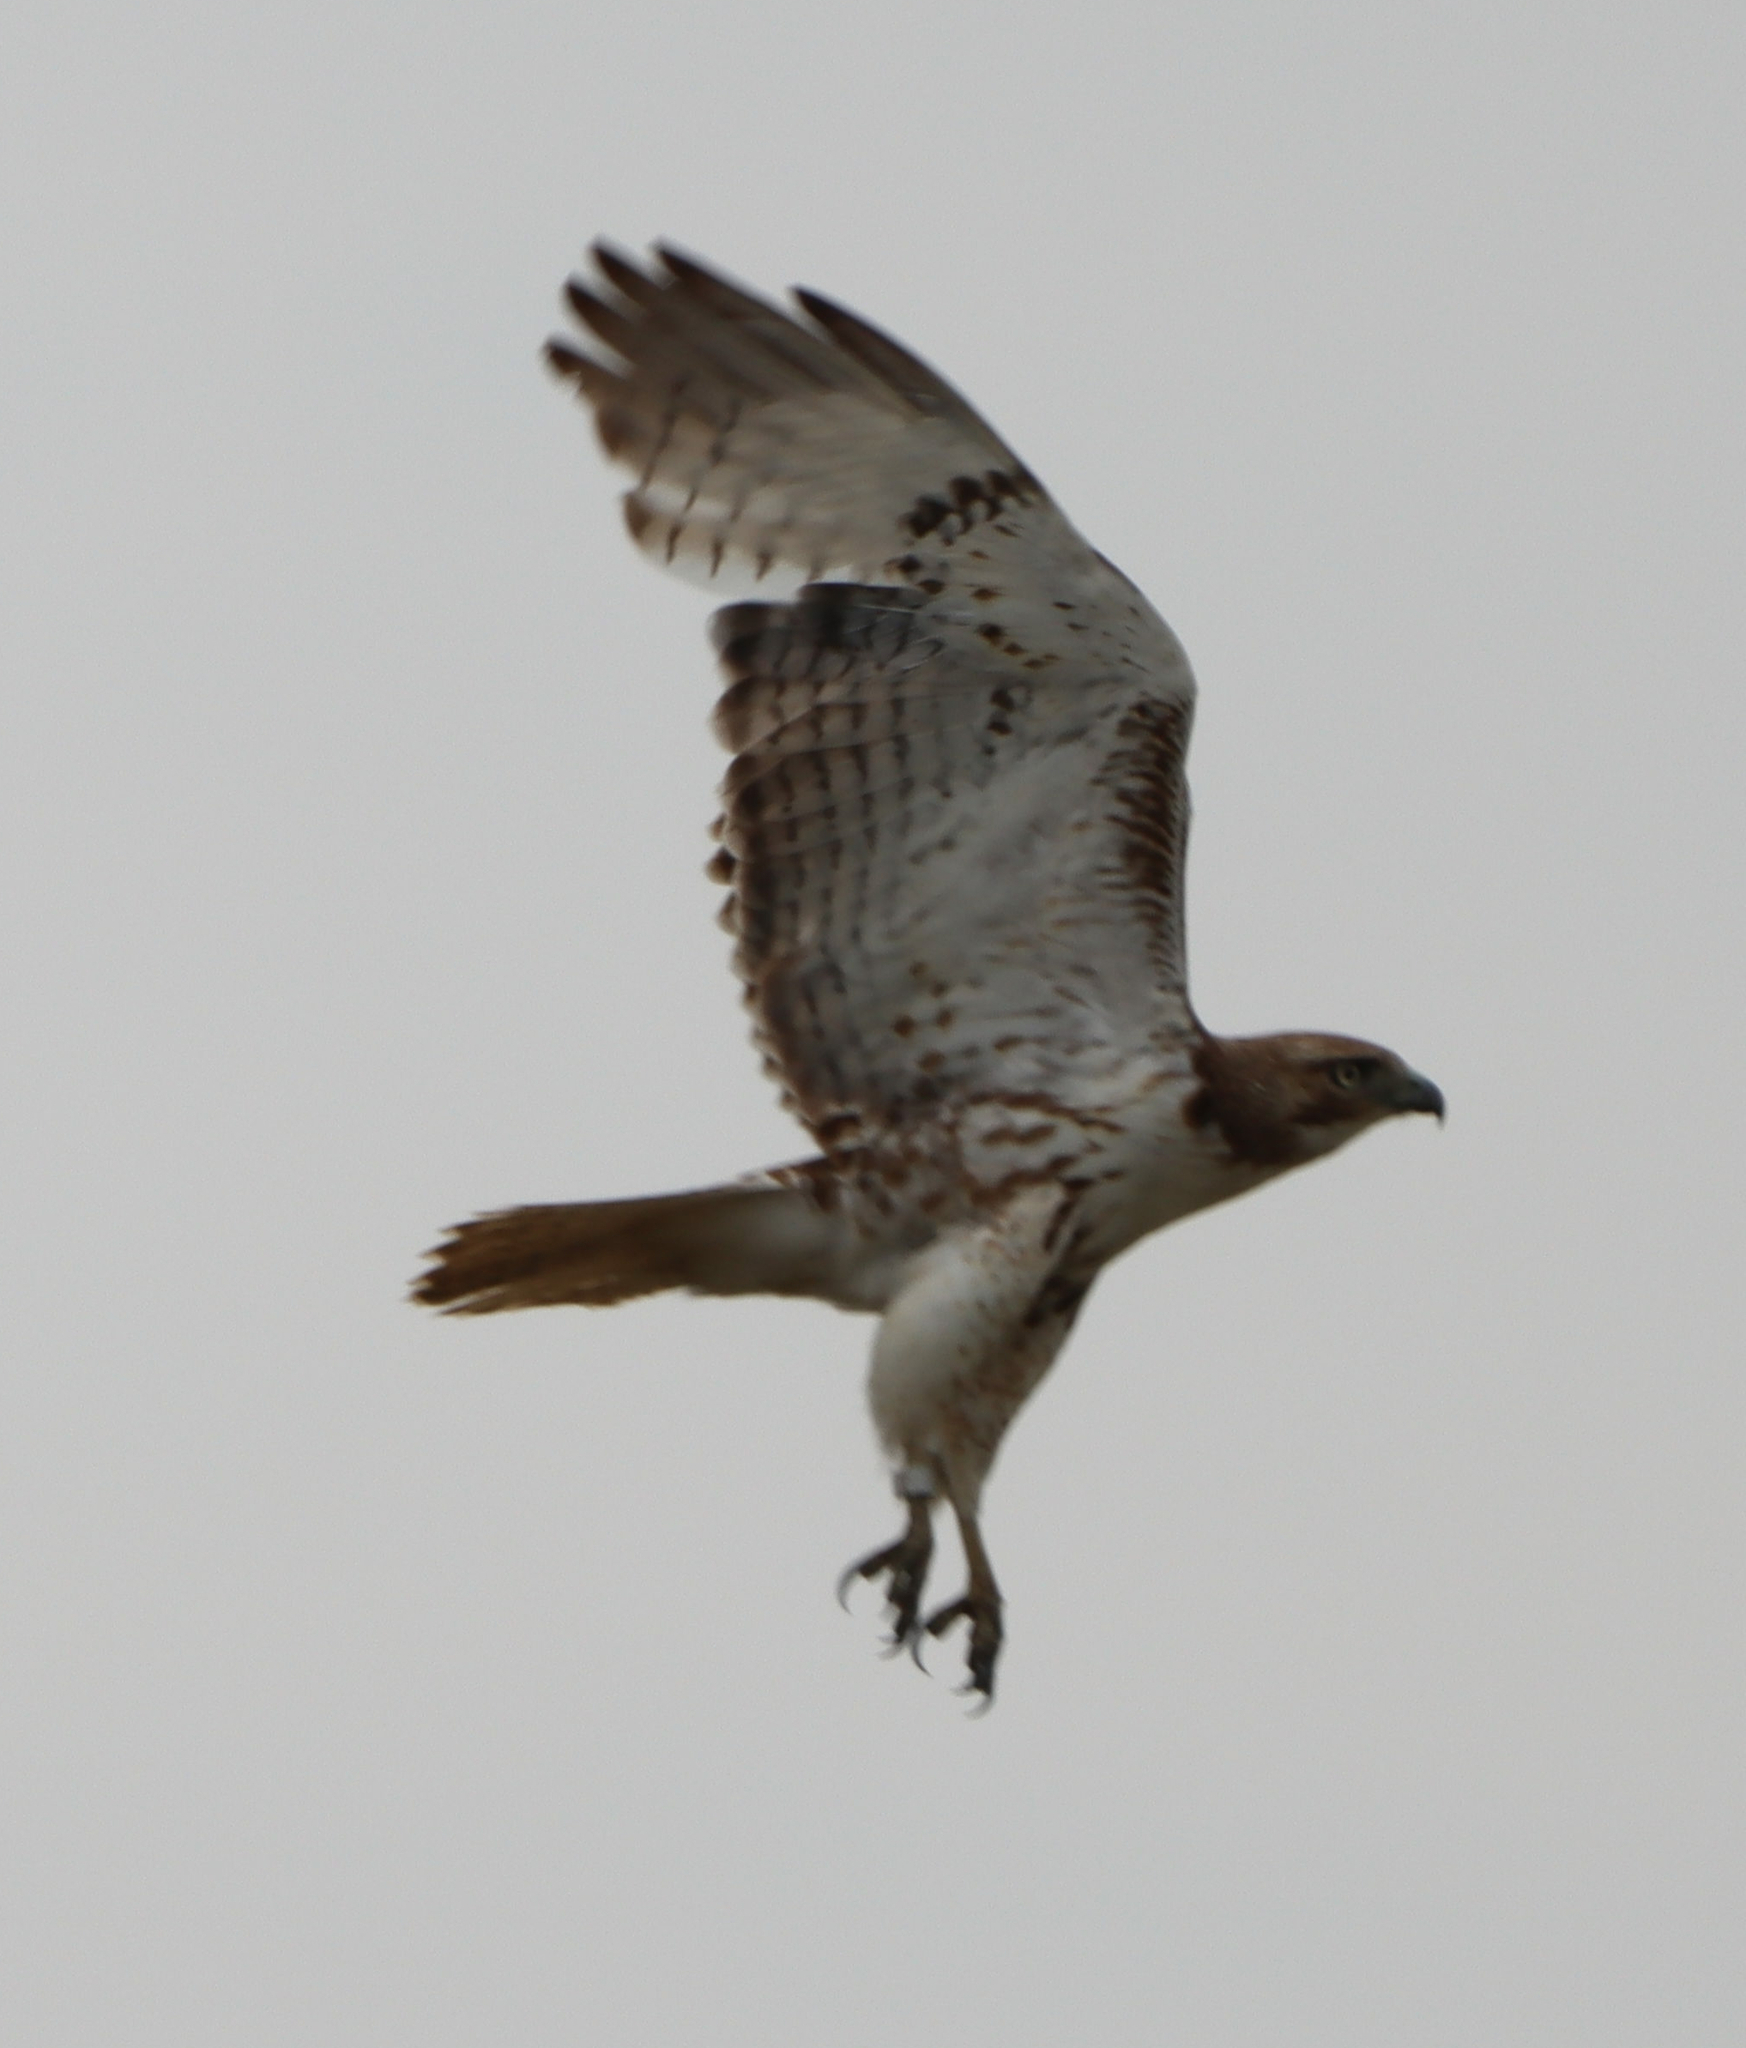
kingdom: Animalia
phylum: Chordata
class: Aves
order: Accipitriformes
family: Accipitridae
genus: Buteo
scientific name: Buteo jamaicensis
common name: Red-tailed hawk
